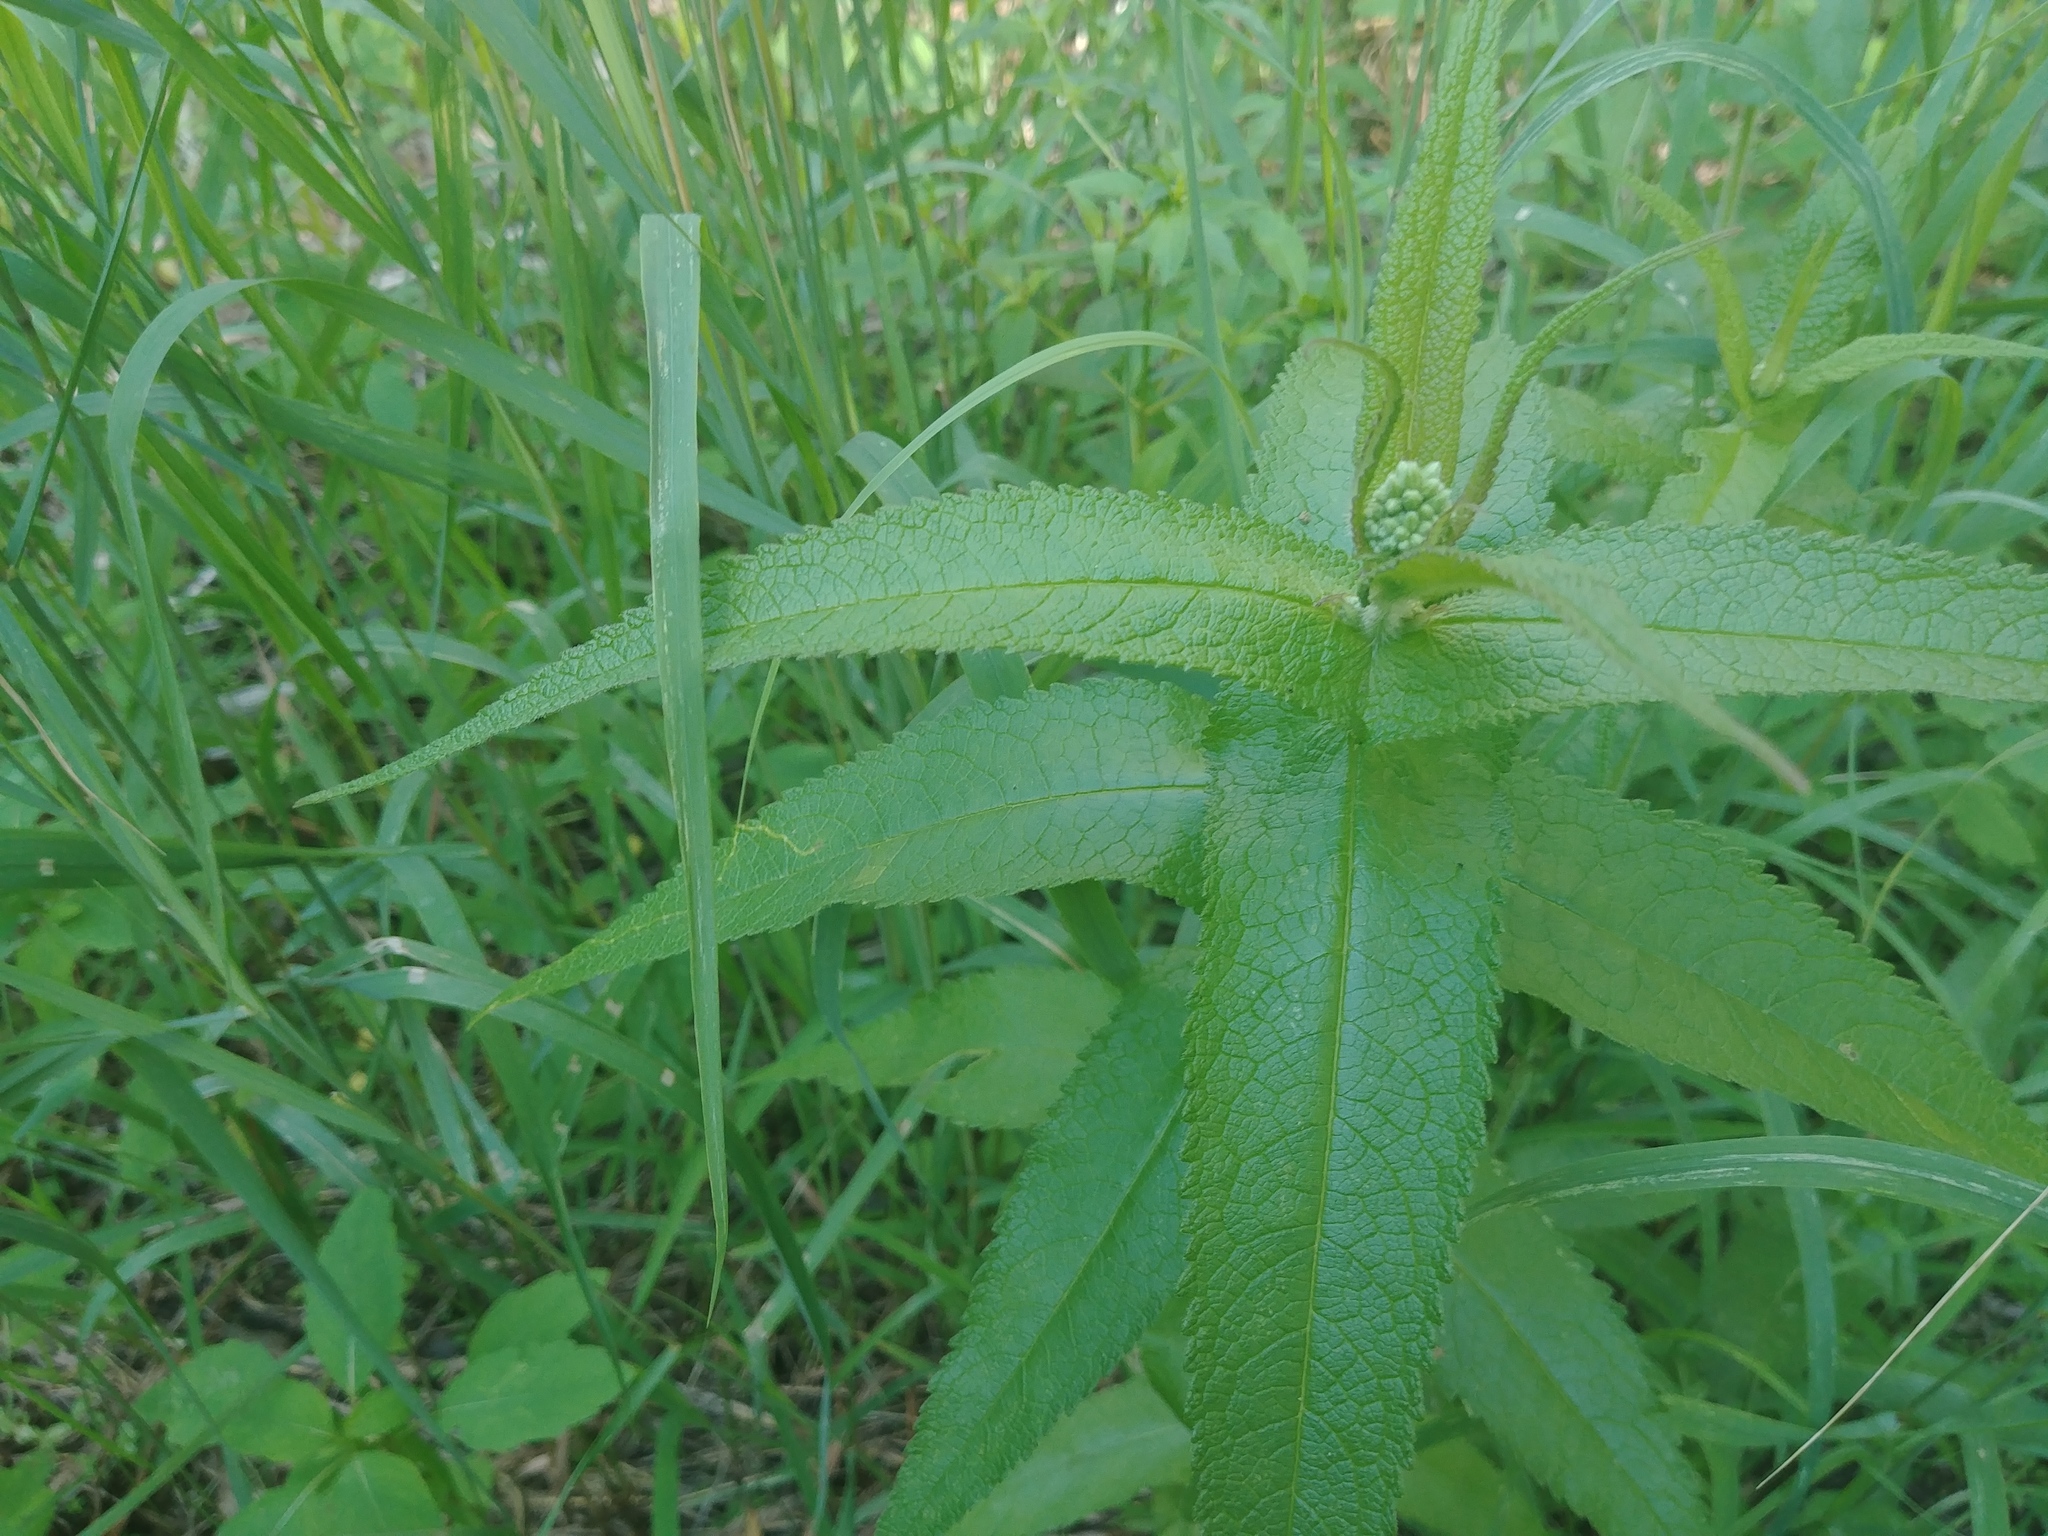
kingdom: Plantae
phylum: Tracheophyta
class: Magnoliopsida
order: Asterales
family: Asteraceae
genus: Eupatorium
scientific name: Eupatorium perfoliatum
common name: Boneset
